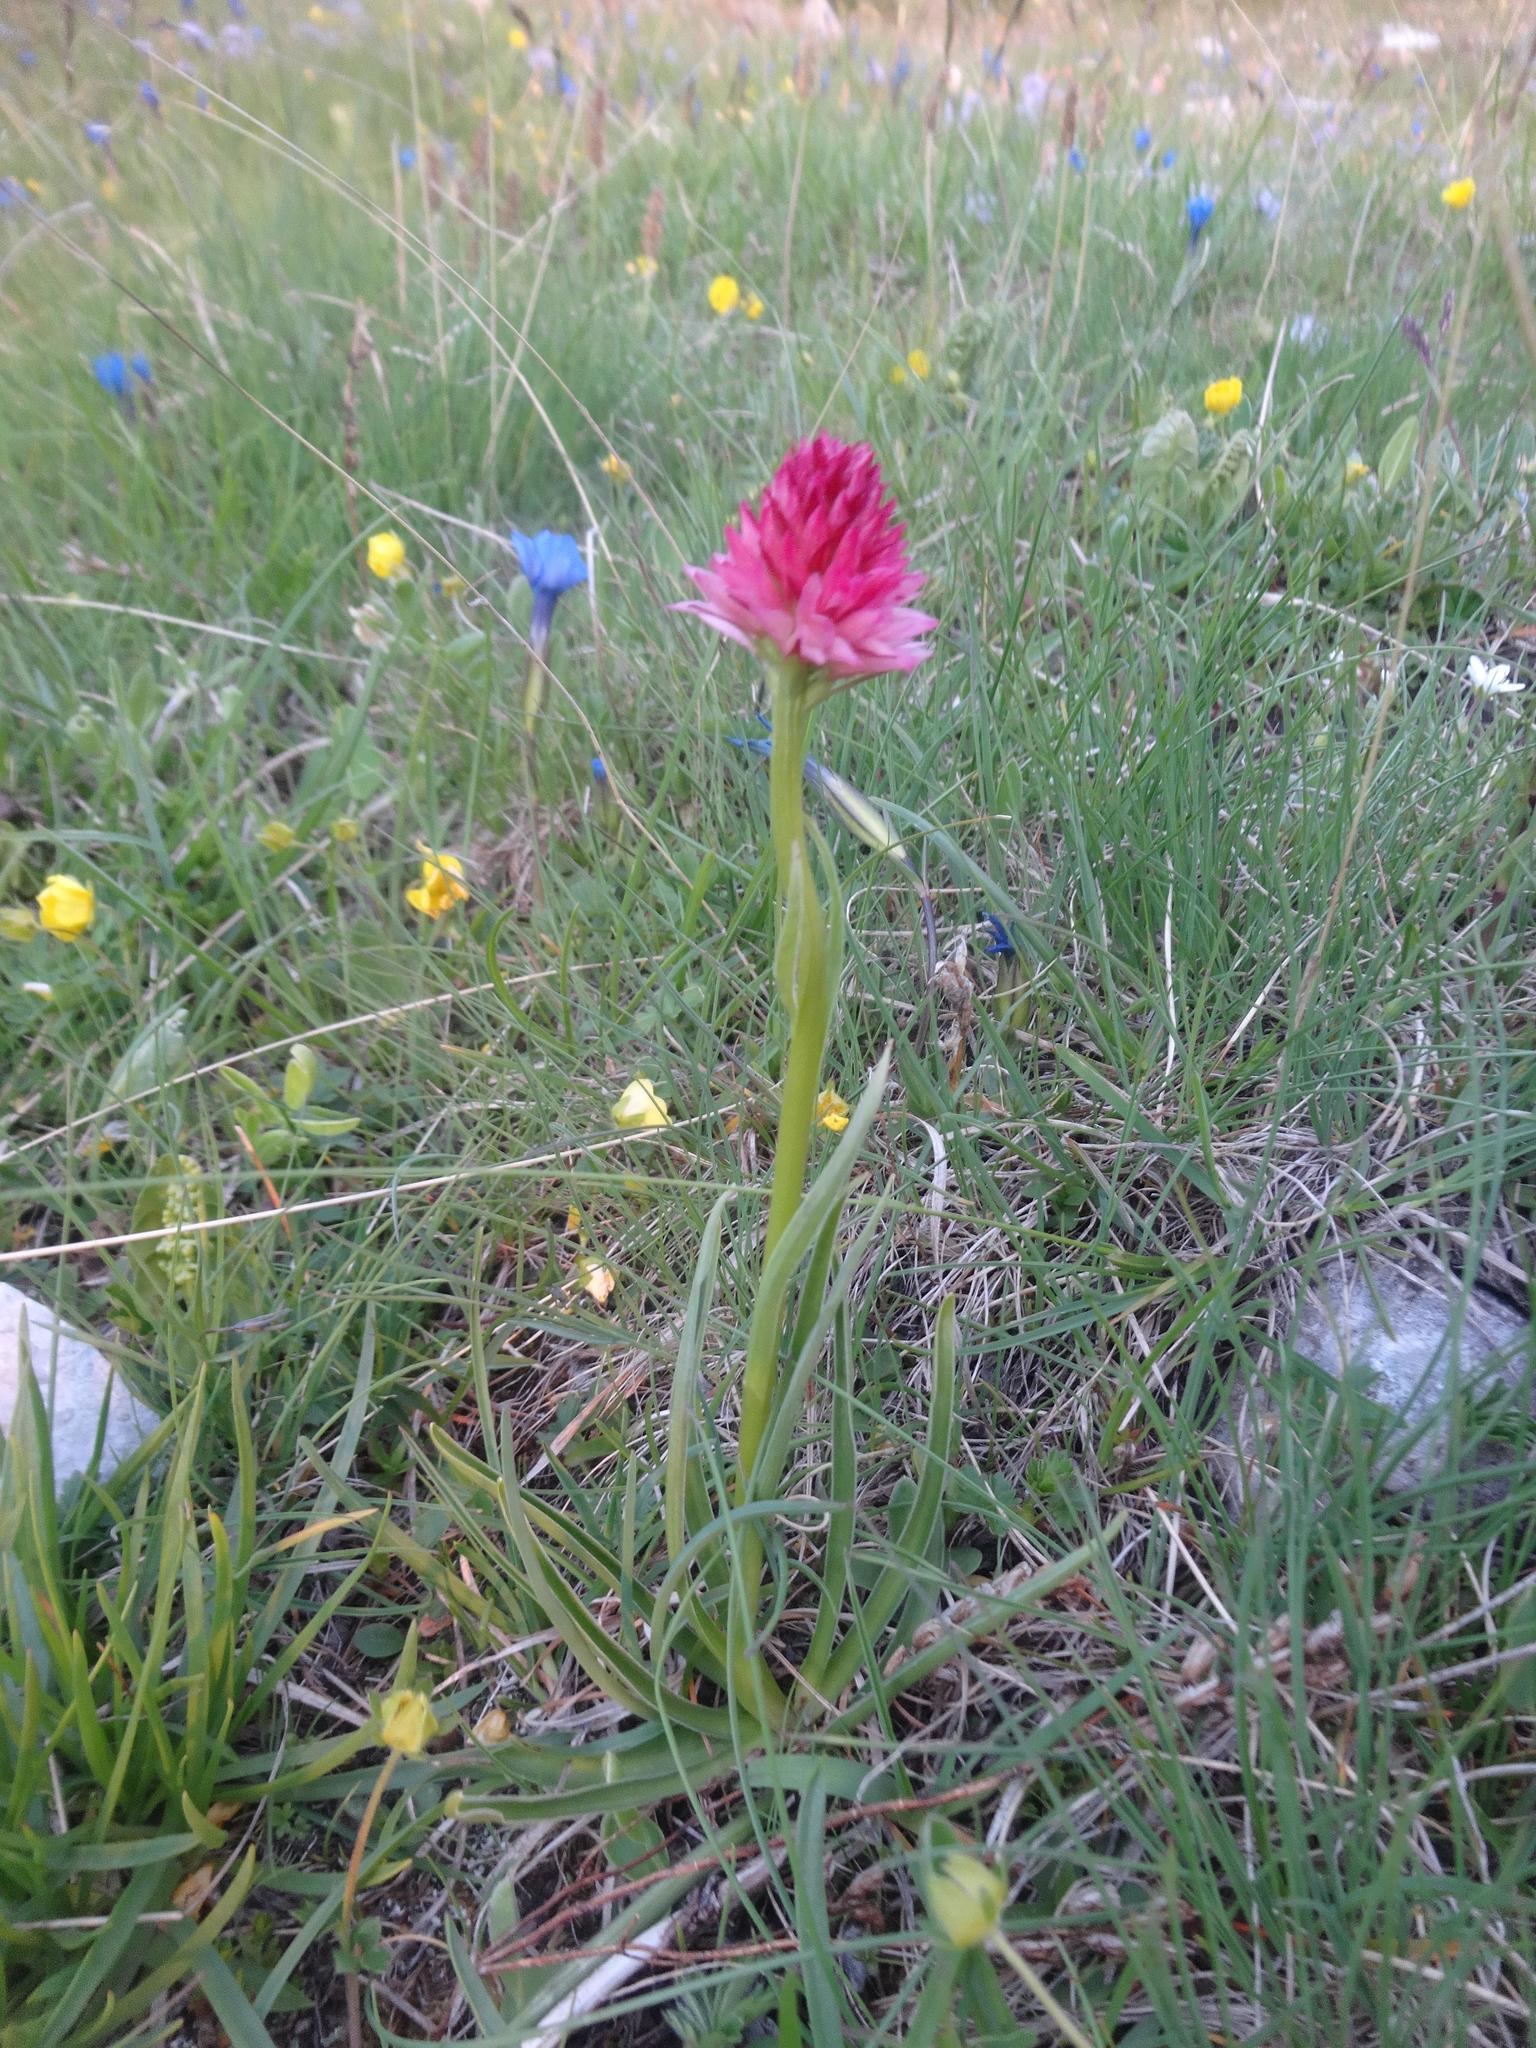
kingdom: Plantae
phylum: Tracheophyta
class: Liliopsida
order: Asparagales
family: Orchidaceae
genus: Gymnadenia
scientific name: Gymnadenia corneliana
